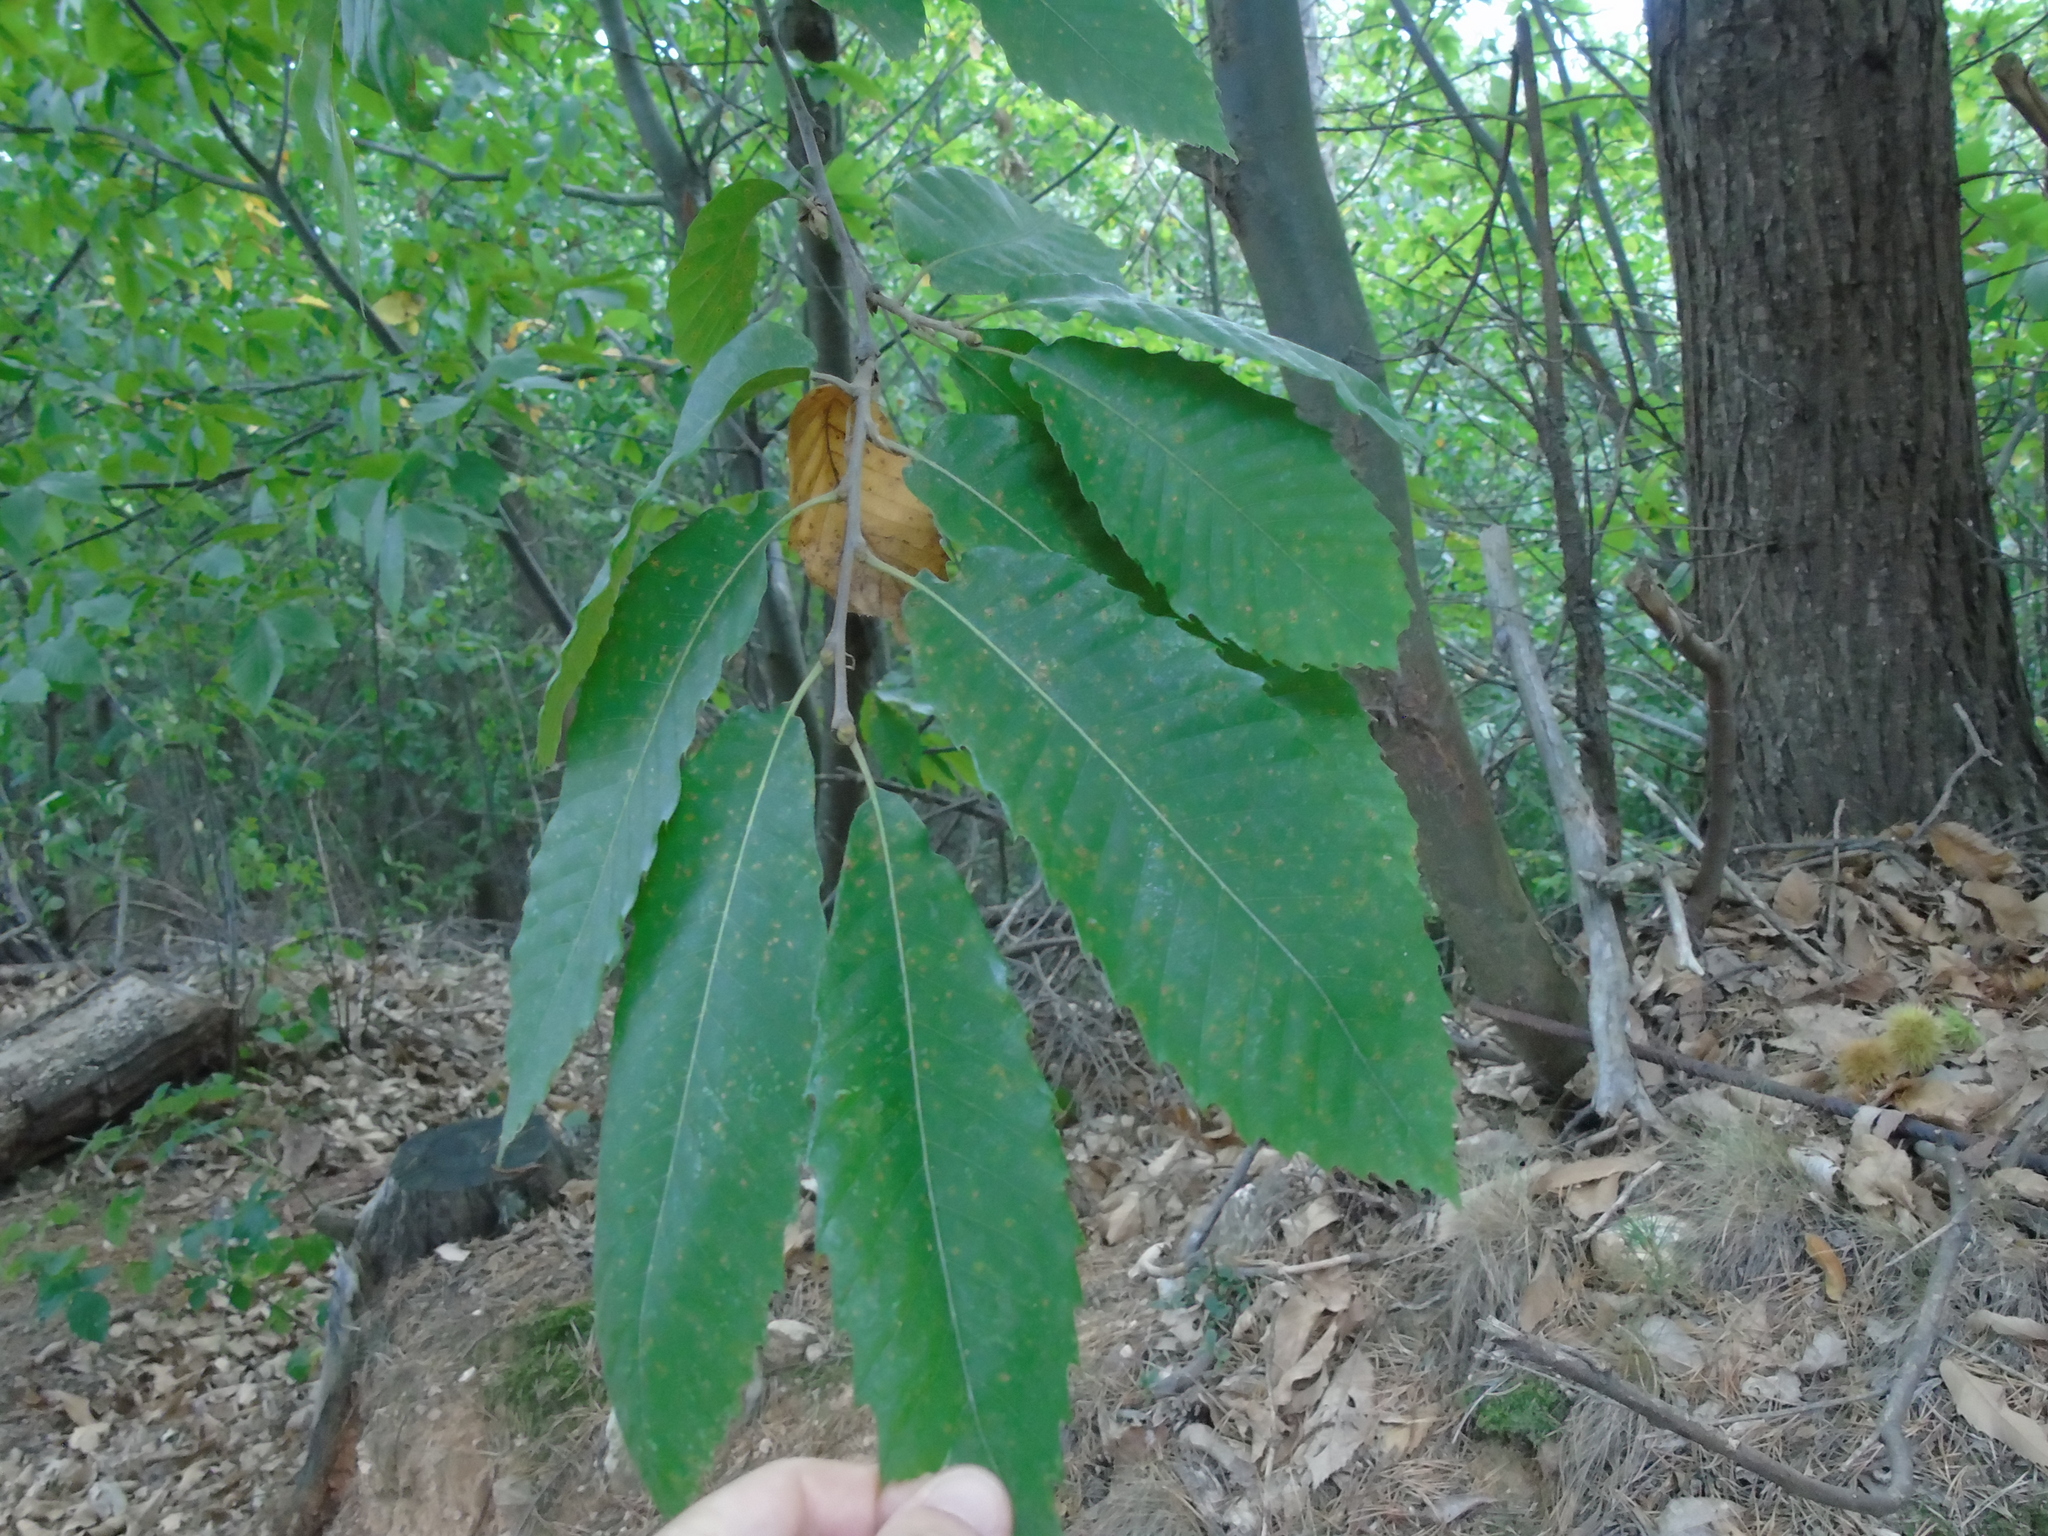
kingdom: Plantae
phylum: Tracheophyta
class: Magnoliopsida
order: Fagales
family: Fagaceae
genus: Castanea
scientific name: Castanea sativa
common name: Sweet chestnut
